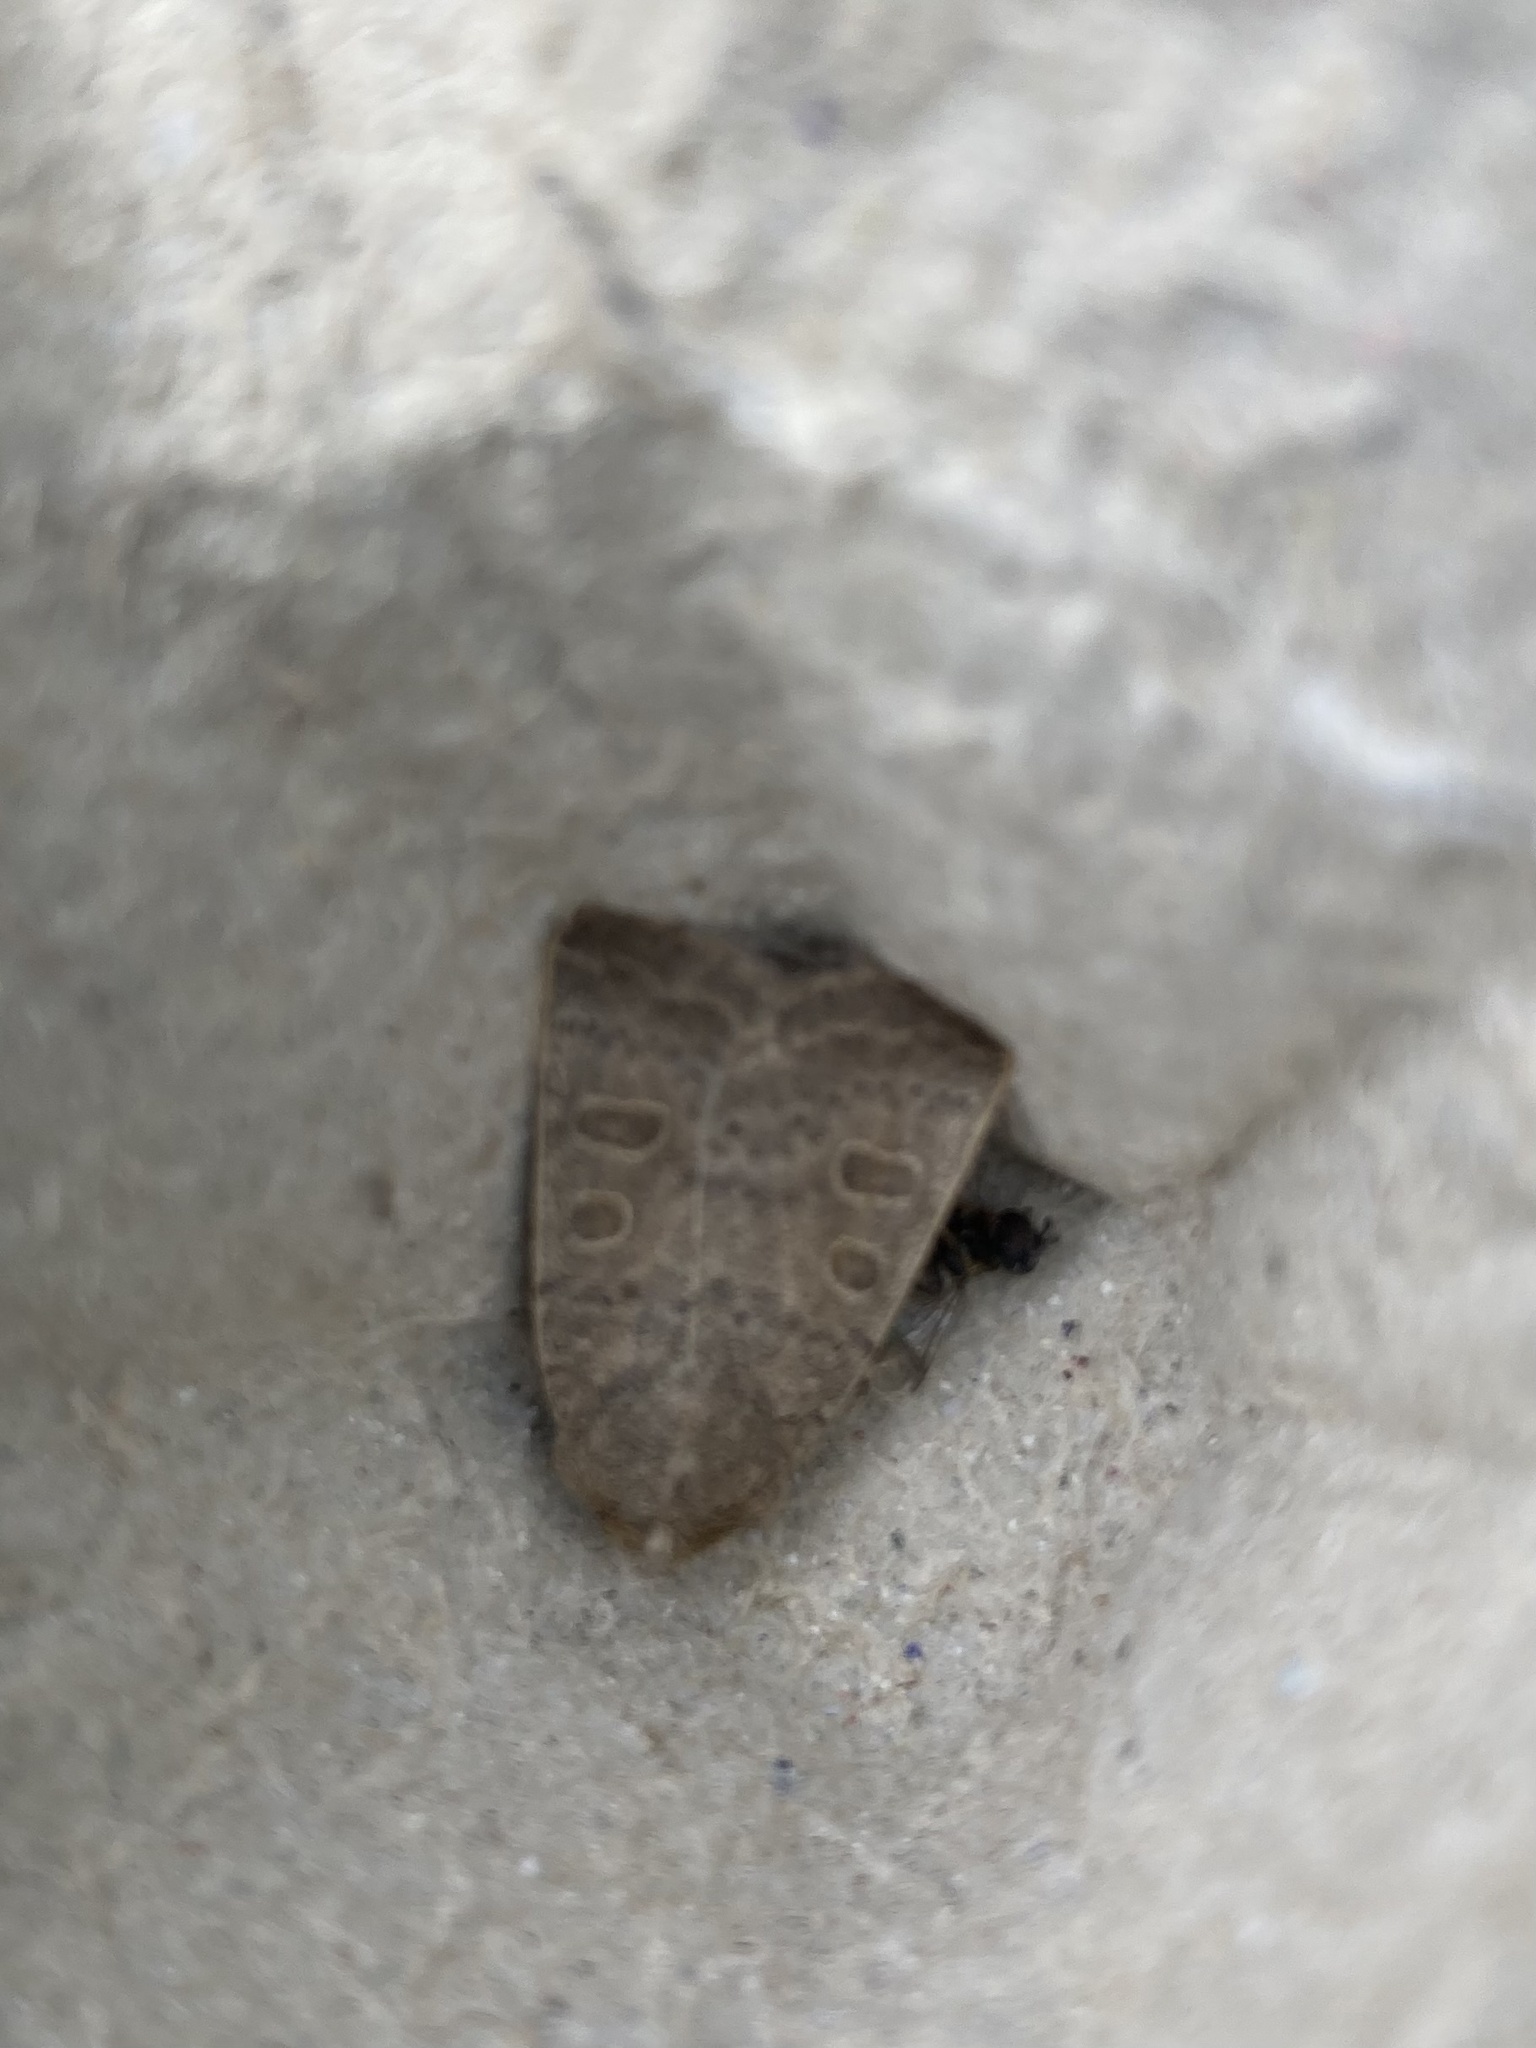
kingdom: Animalia
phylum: Arthropoda
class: Insecta
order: Lepidoptera
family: Noctuidae
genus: Hoplodrina
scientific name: Hoplodrina ambigua
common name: Vine's rustic
